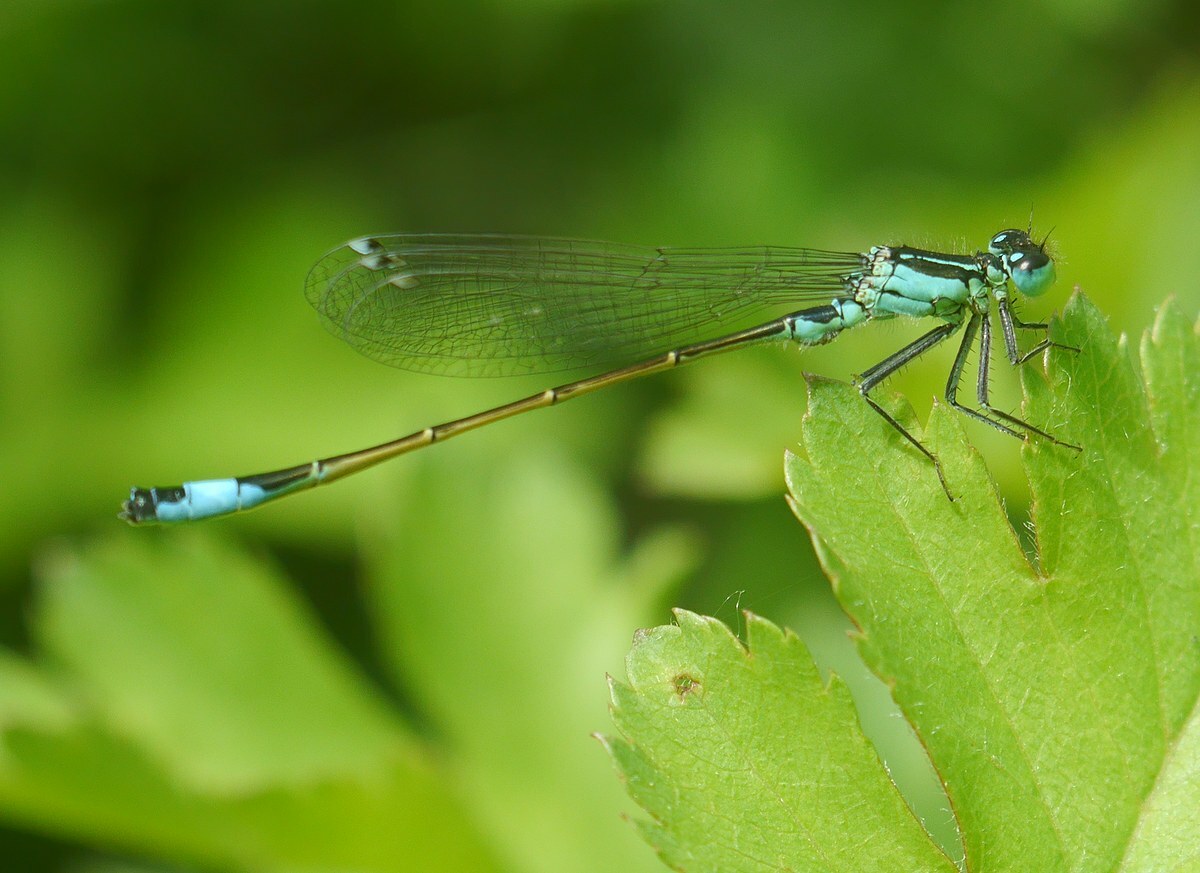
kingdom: Animalia
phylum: Arthropoda
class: Insecta
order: Odonata
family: Coenagrionidae
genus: Ischnura
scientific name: Ischnura elegans
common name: Blue-tailed damselfly
